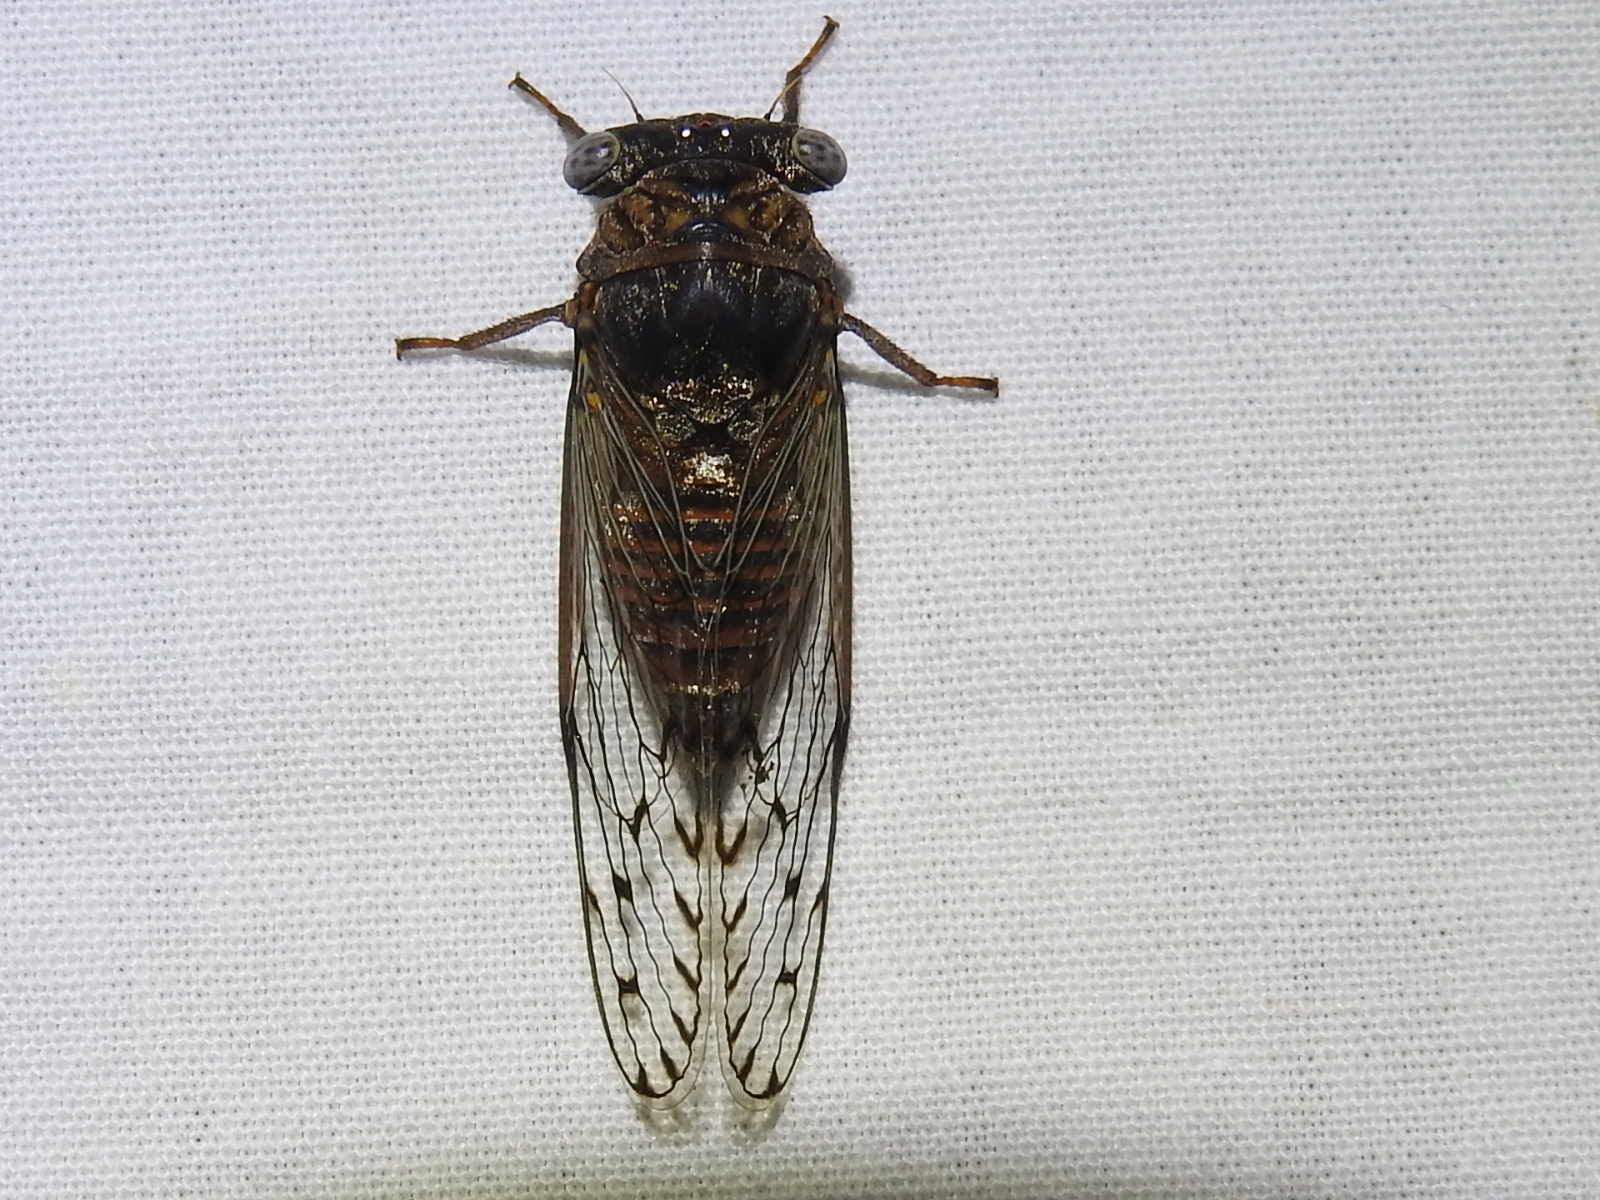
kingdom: Animalia
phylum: Arthropoda
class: Insecta
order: Hemiptera
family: Cicadidae
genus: Pacarina
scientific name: Pacarina puella
